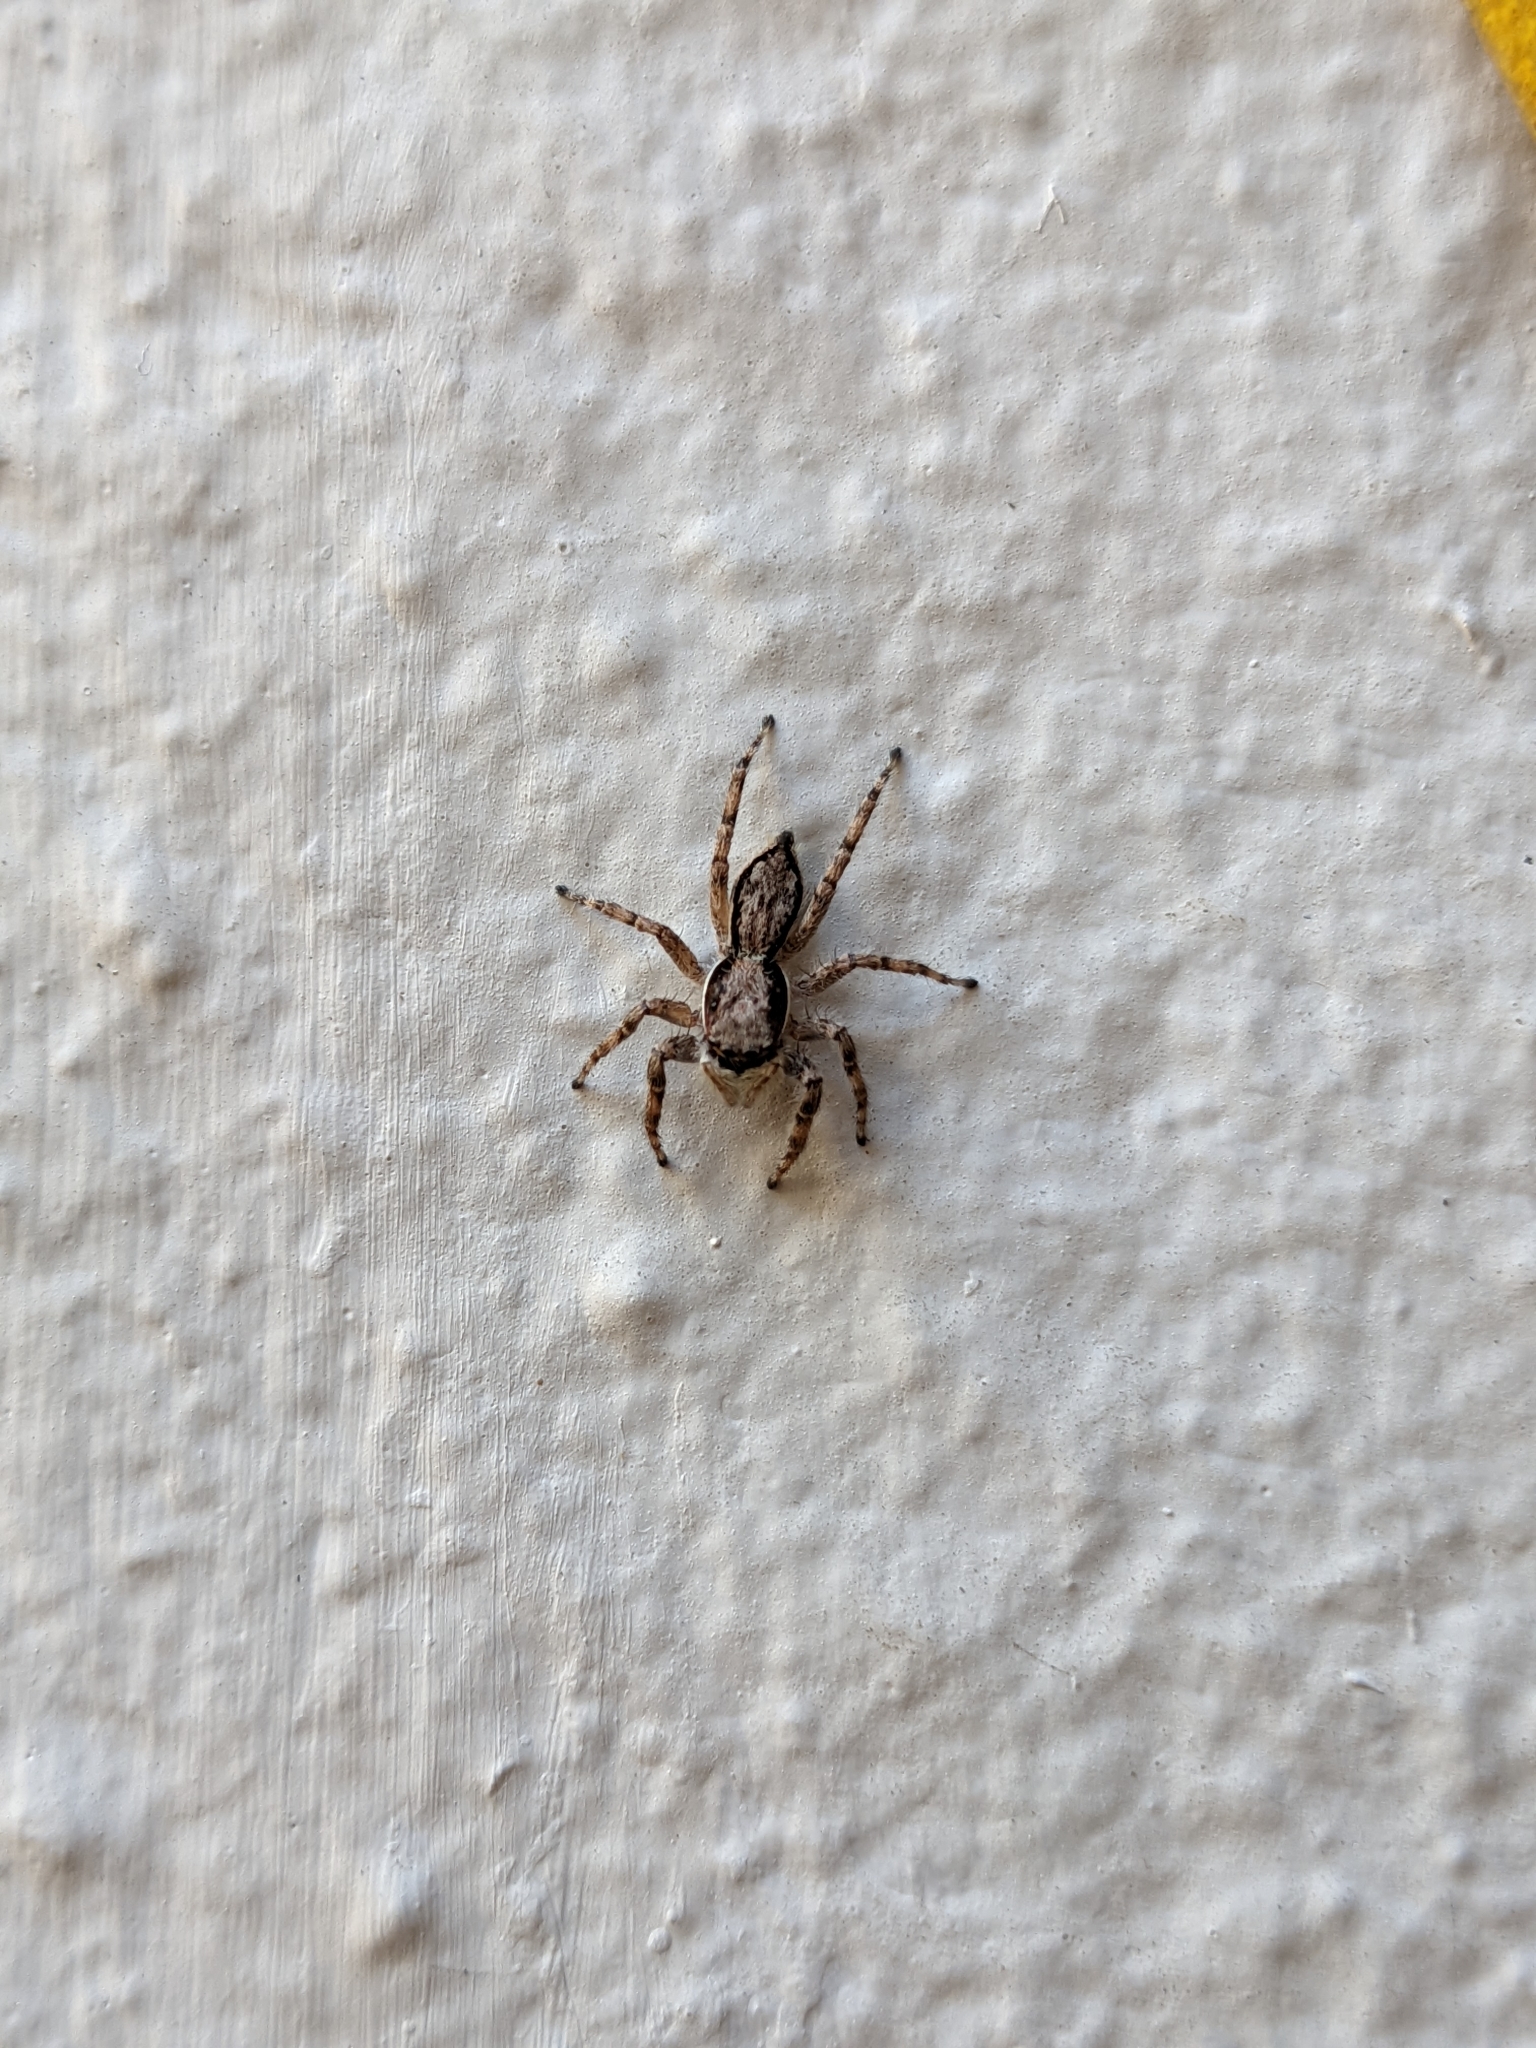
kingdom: Animalia
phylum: Arthropoda
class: Arachnida
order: Araneae
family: Salticidae
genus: Menemerus
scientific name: Menemerus bivittatus
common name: Gray wall jumper
